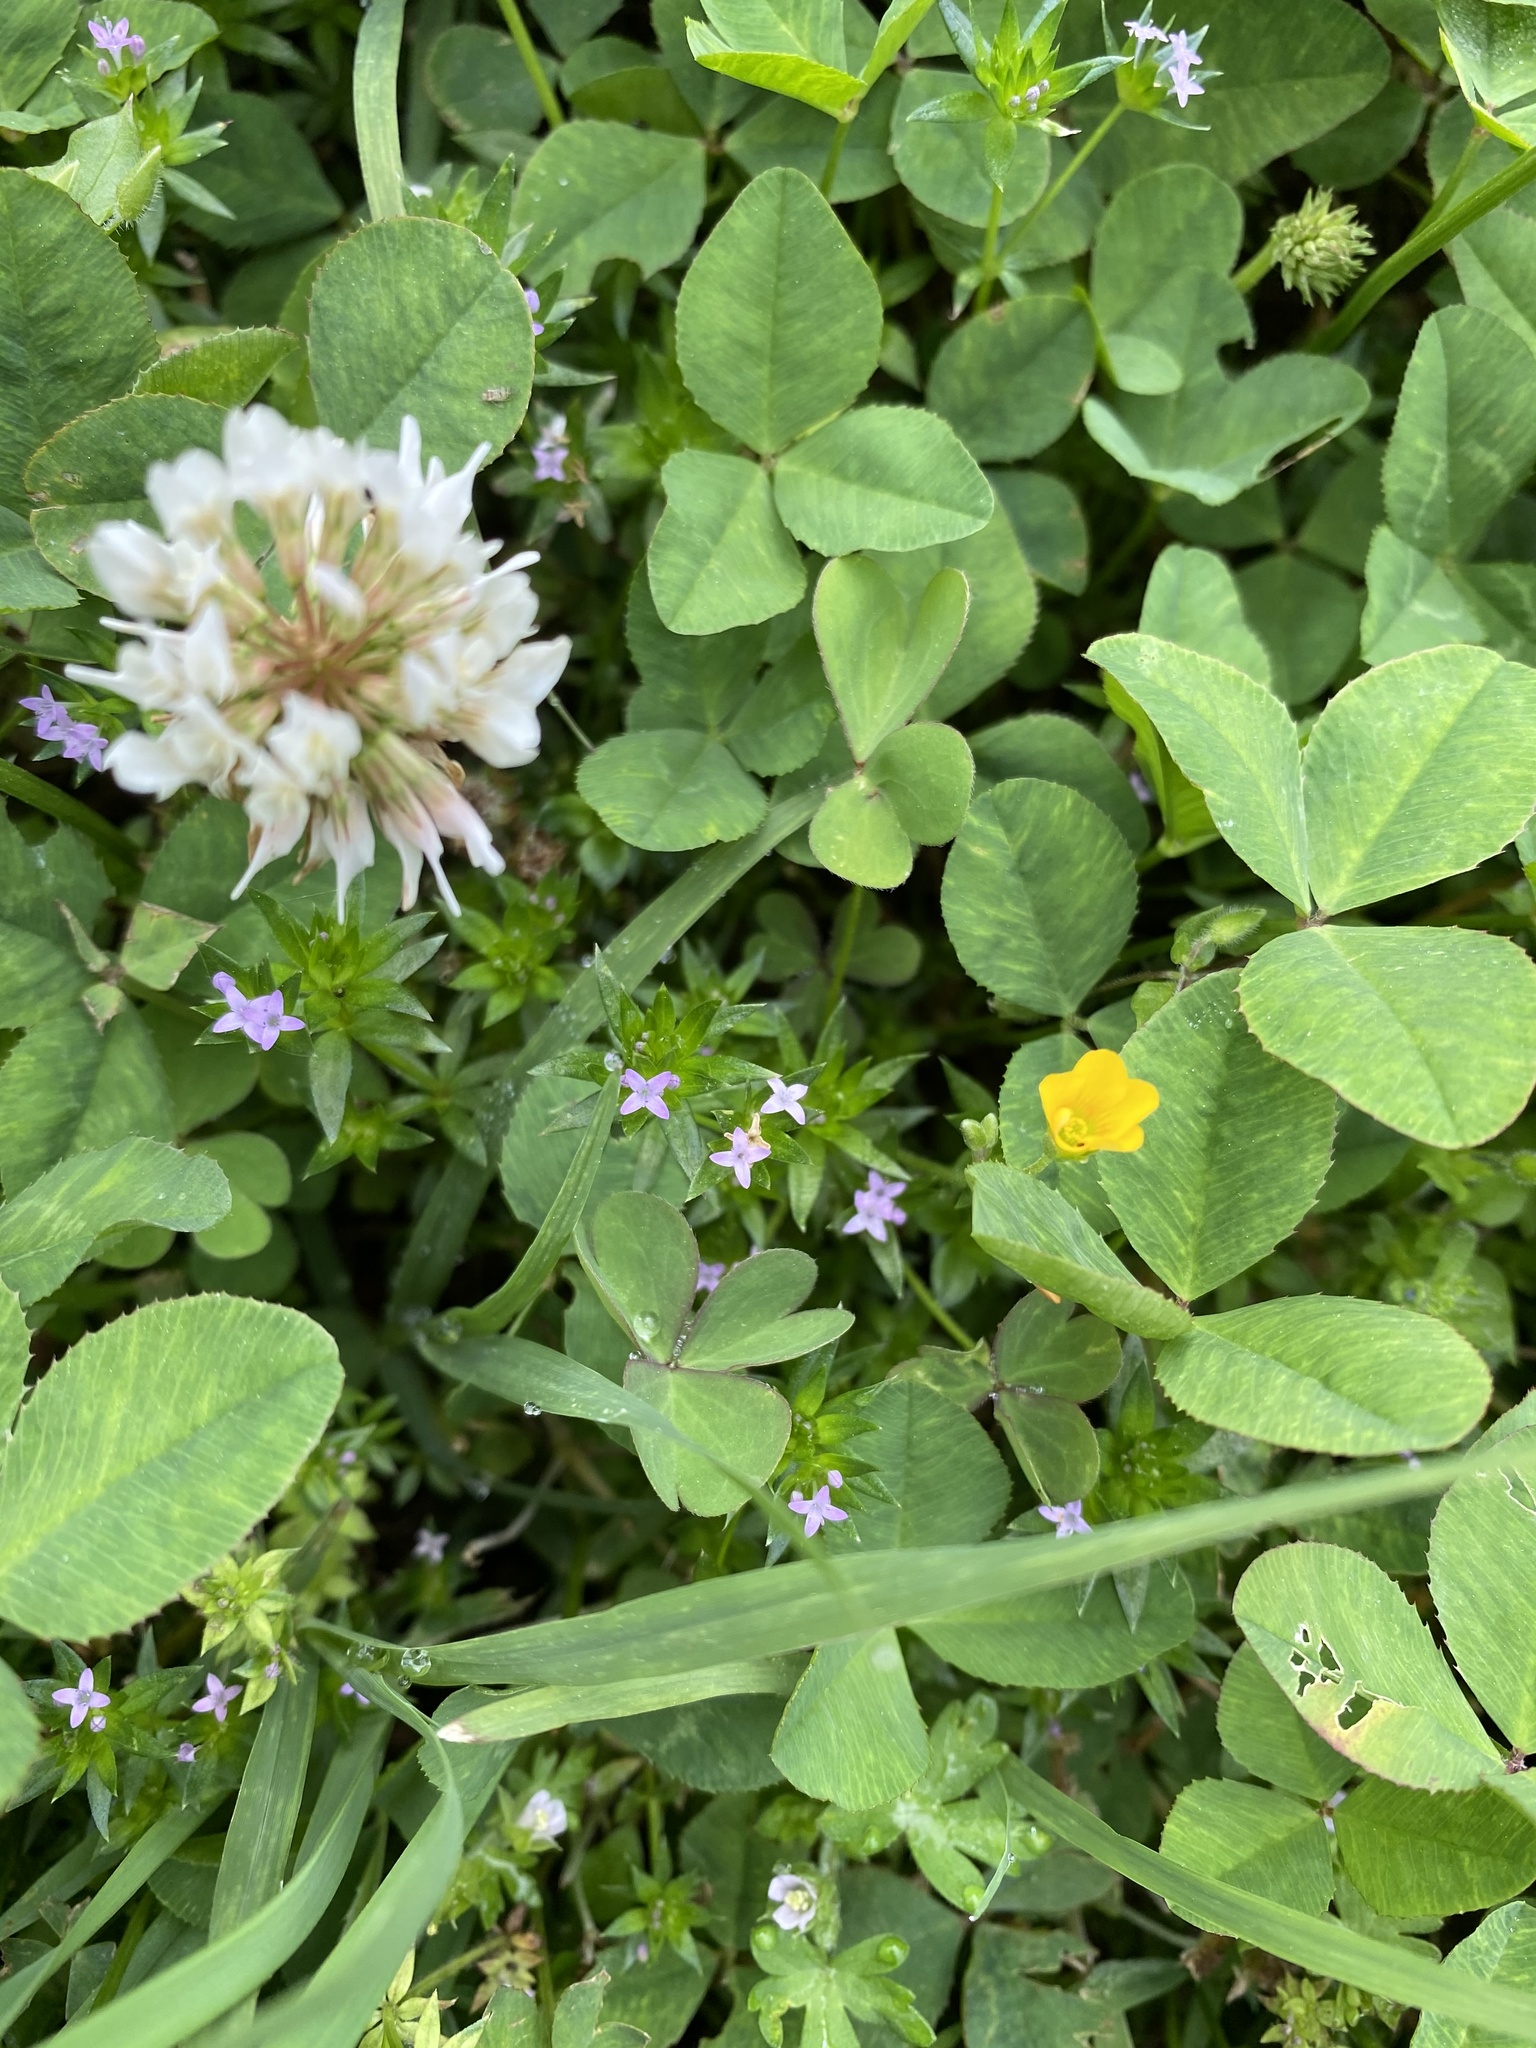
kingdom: Plantae
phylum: Tracheophyta
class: Magnoliopsida
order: Fabales
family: Fabaceae
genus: Trifolium
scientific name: Trifolium repens
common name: White clover
